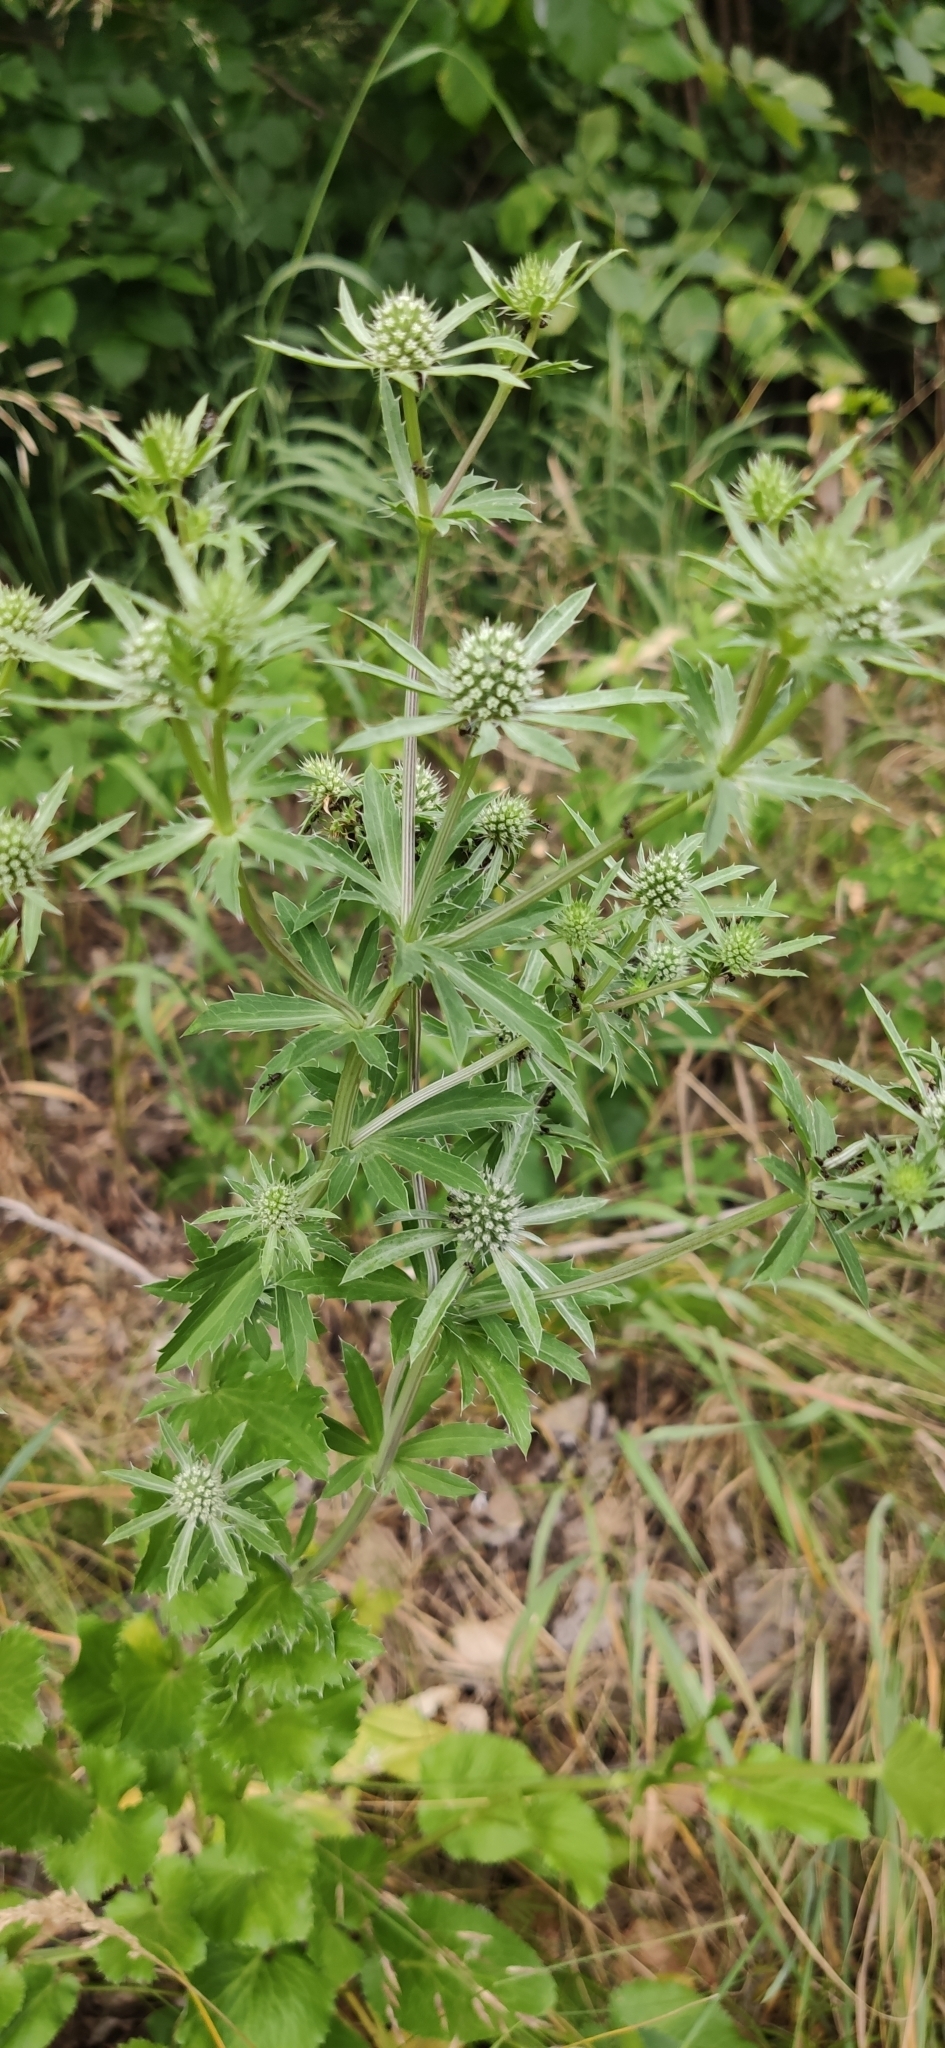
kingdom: Plantae
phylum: Tracheophyta
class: Magnoliopsida
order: Apiales
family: Apiaceae
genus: Eryngium
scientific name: Eryngium planum
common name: Blue eryngo
